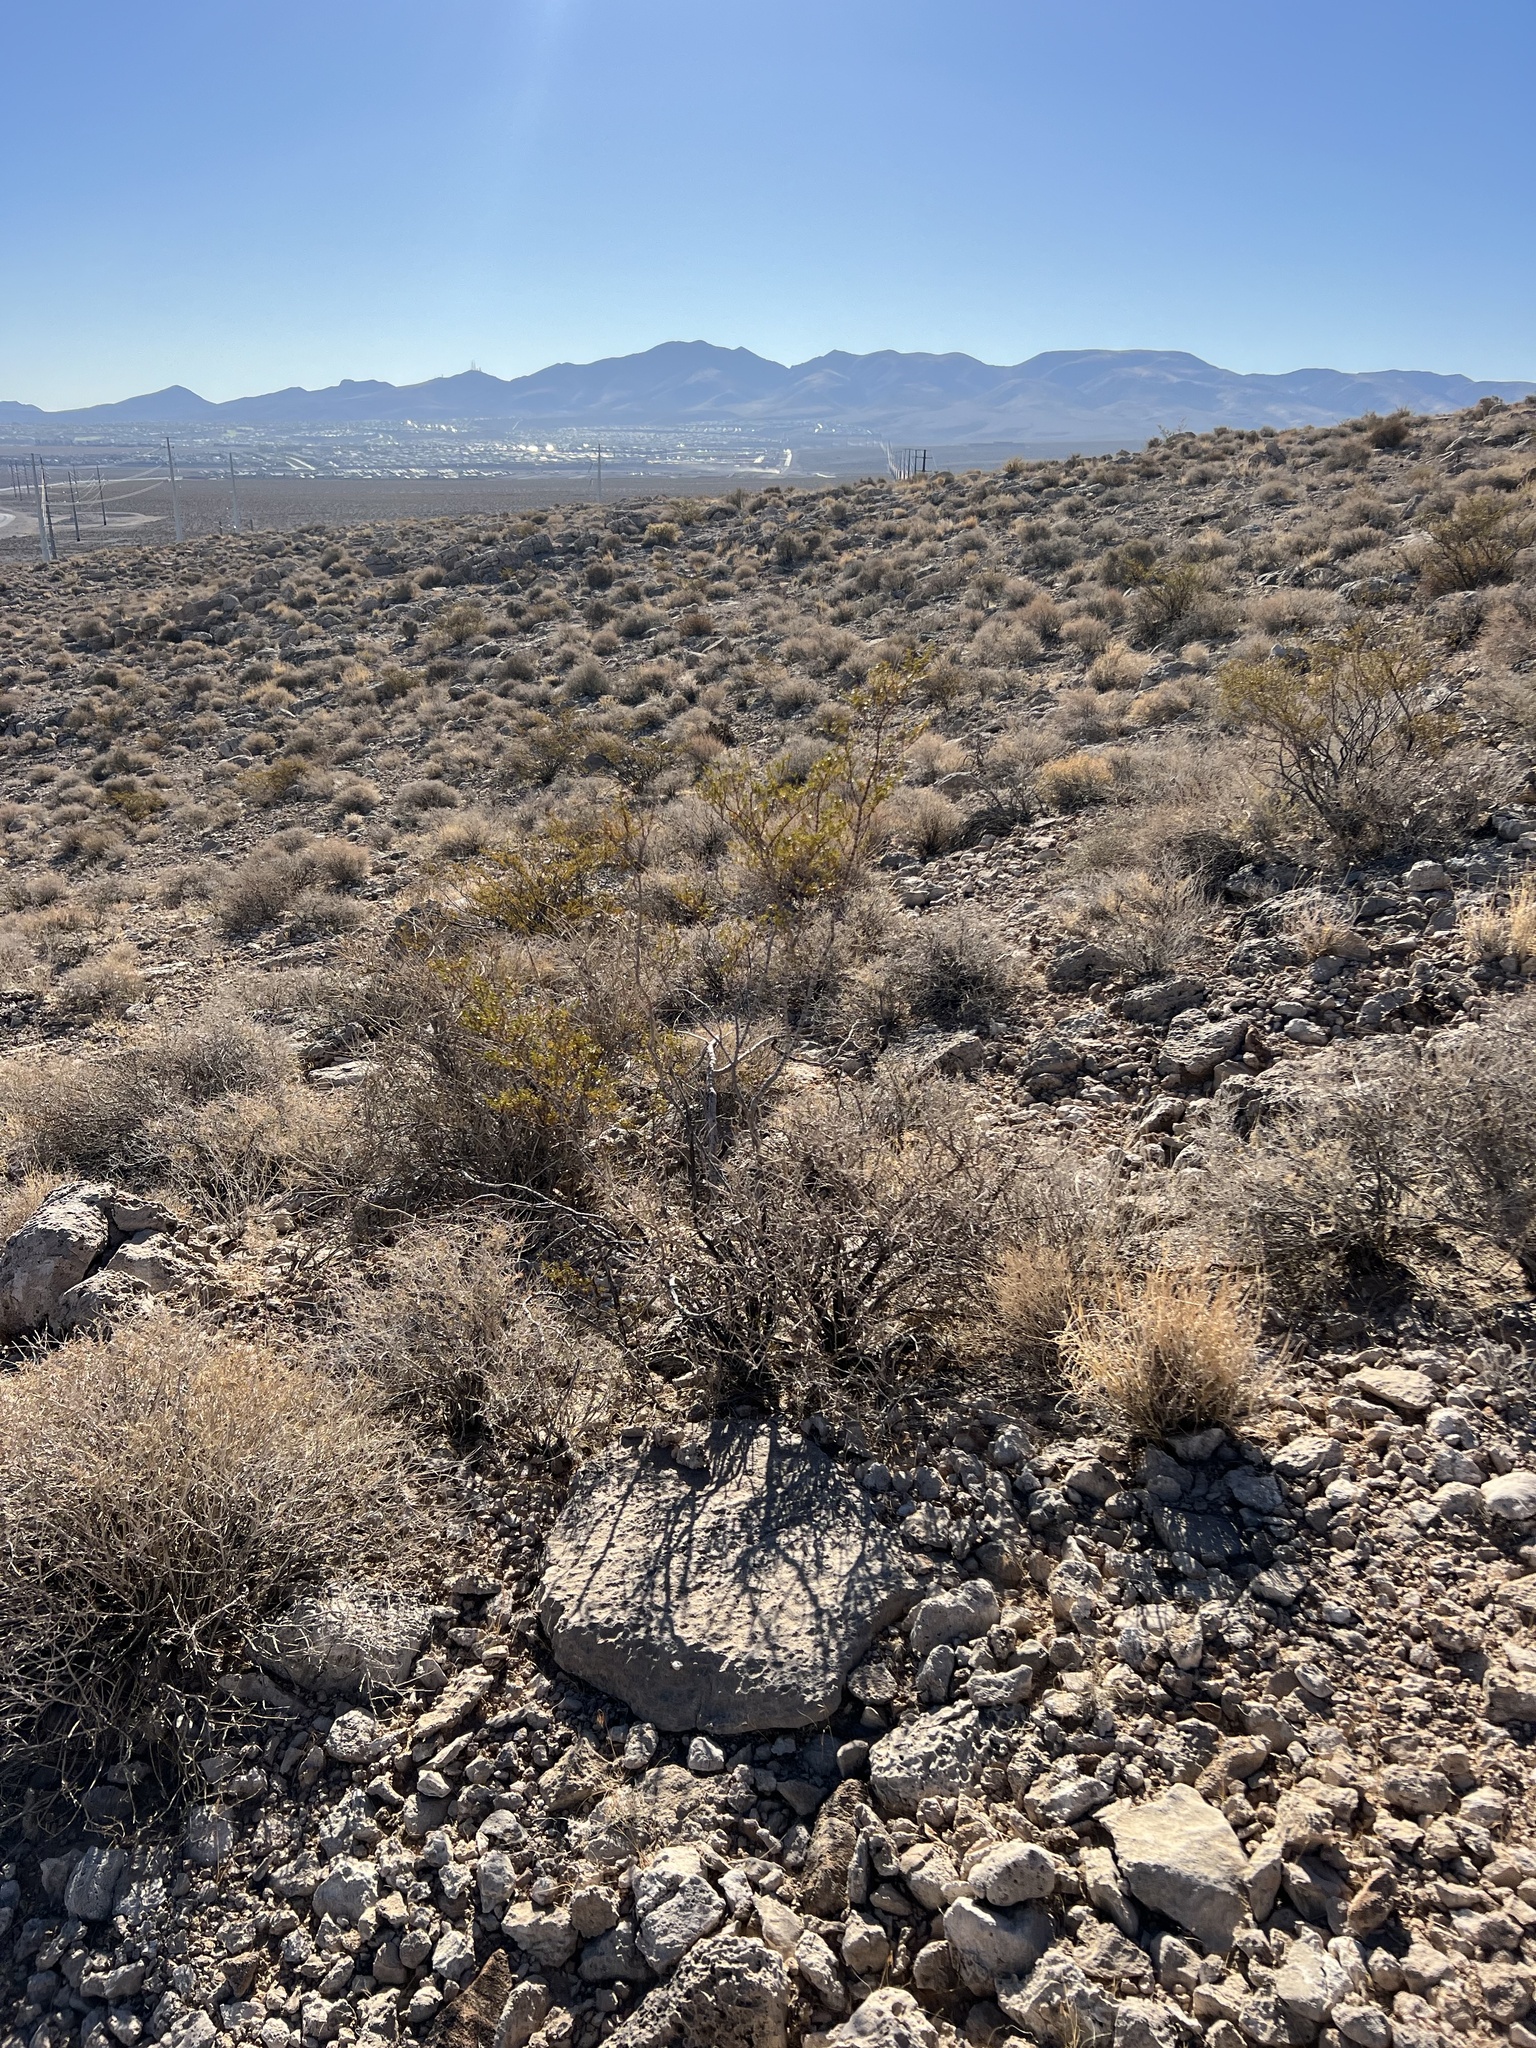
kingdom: Plantae
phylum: Tracheophyta
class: Magnoliopsida
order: Zygophyllales
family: Zygophyllaceae
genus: Larrea
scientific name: Larrea tridentata
